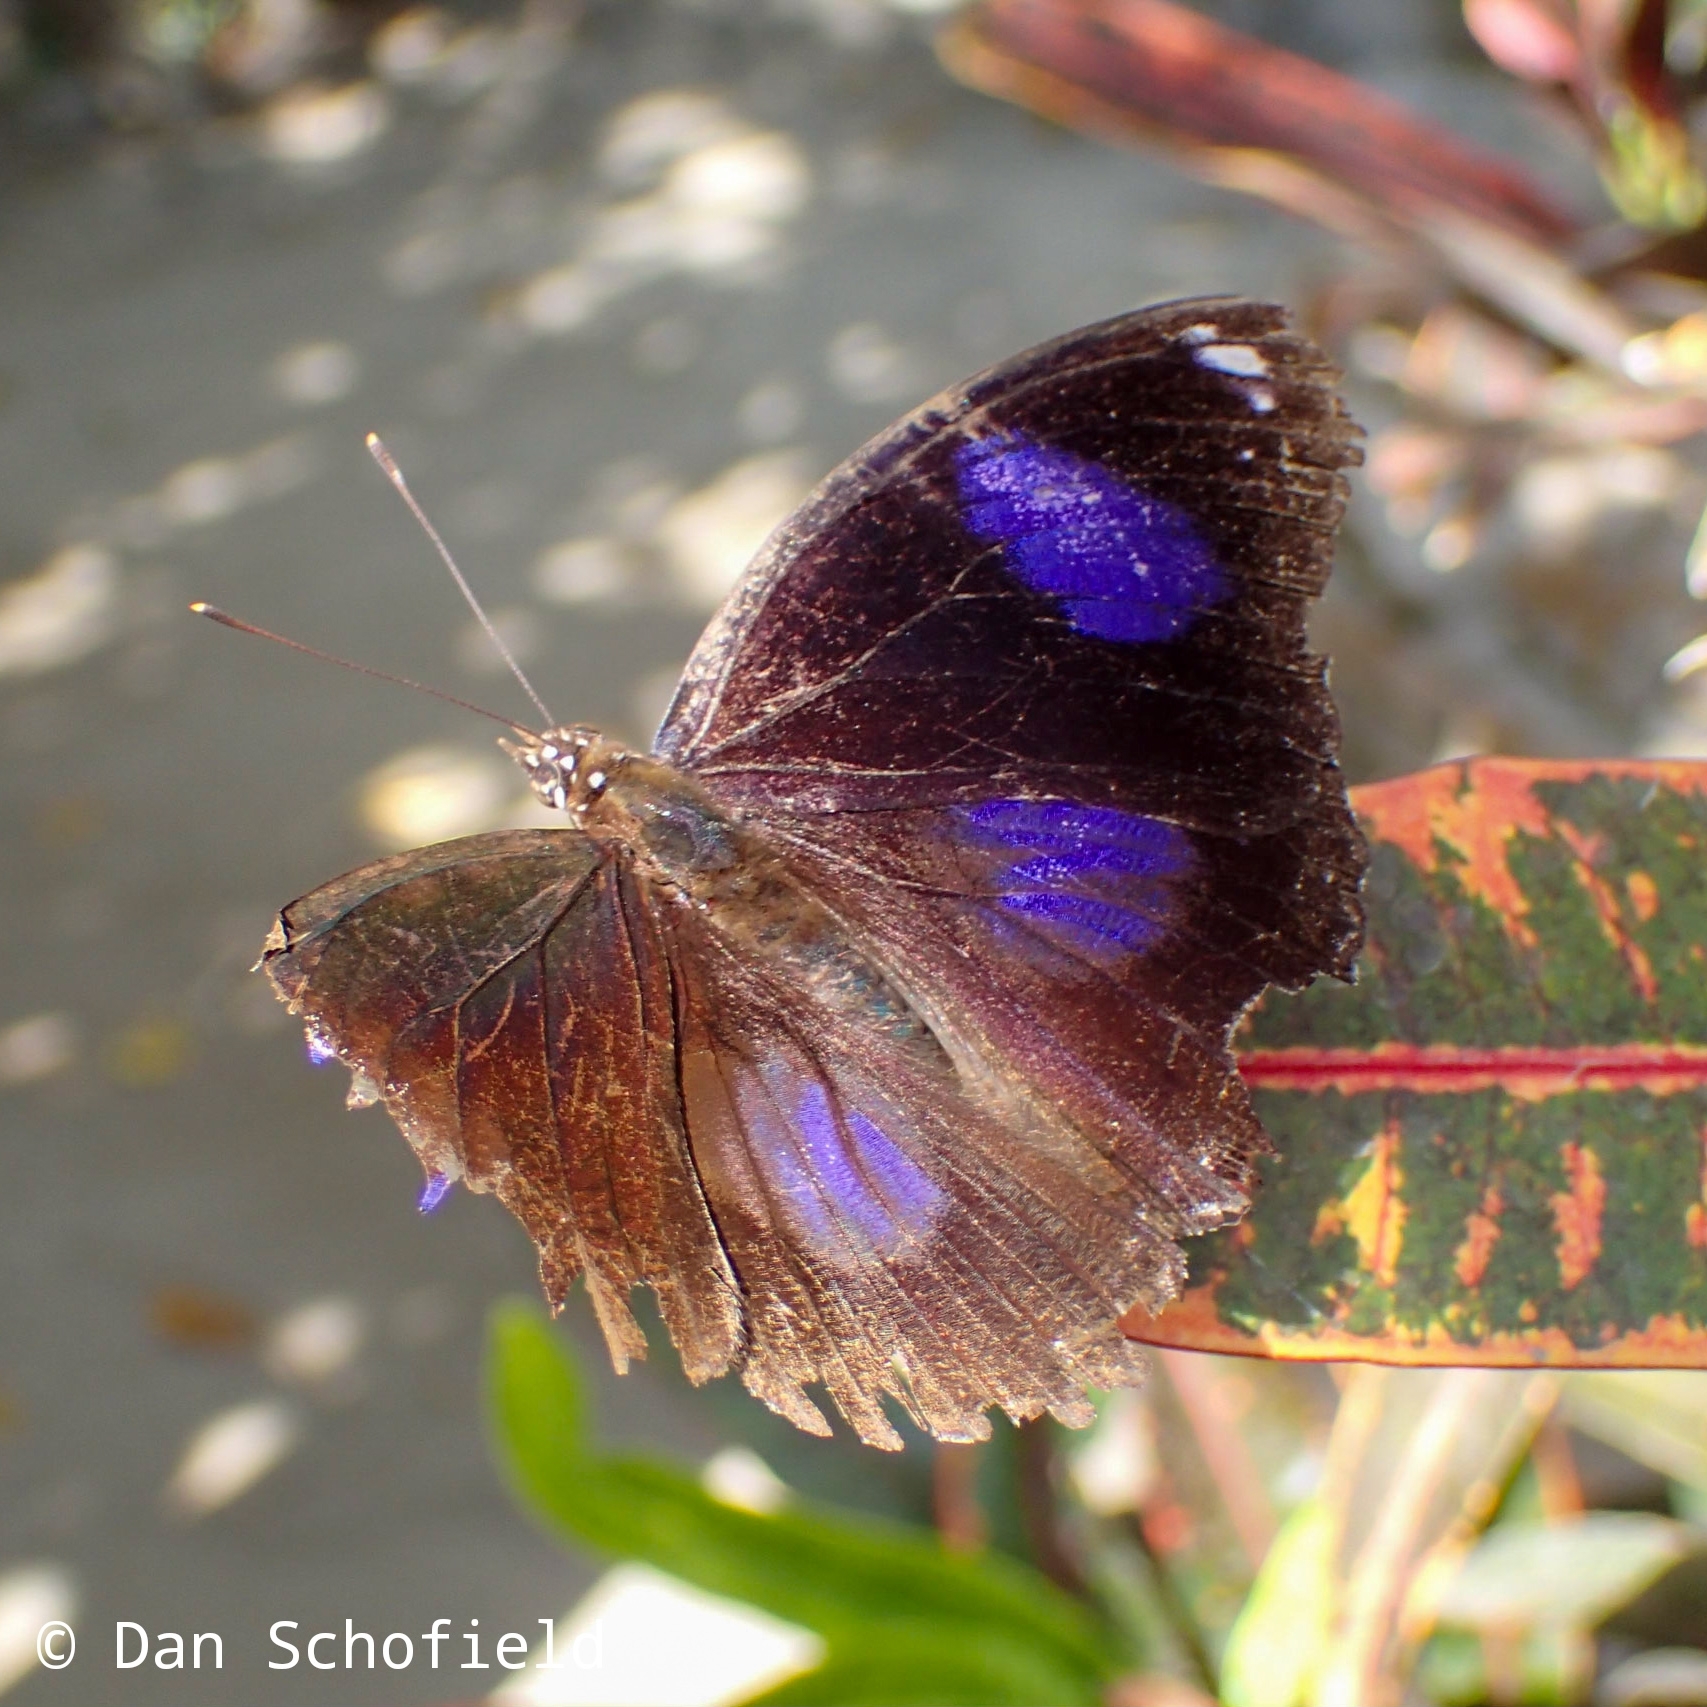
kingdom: Animalia
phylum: Arthropoda
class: Insecta
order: Lepidoptera
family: Nymphalidae
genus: Hypolimnas
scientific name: Hypolimnas bolina
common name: Great eggfly
